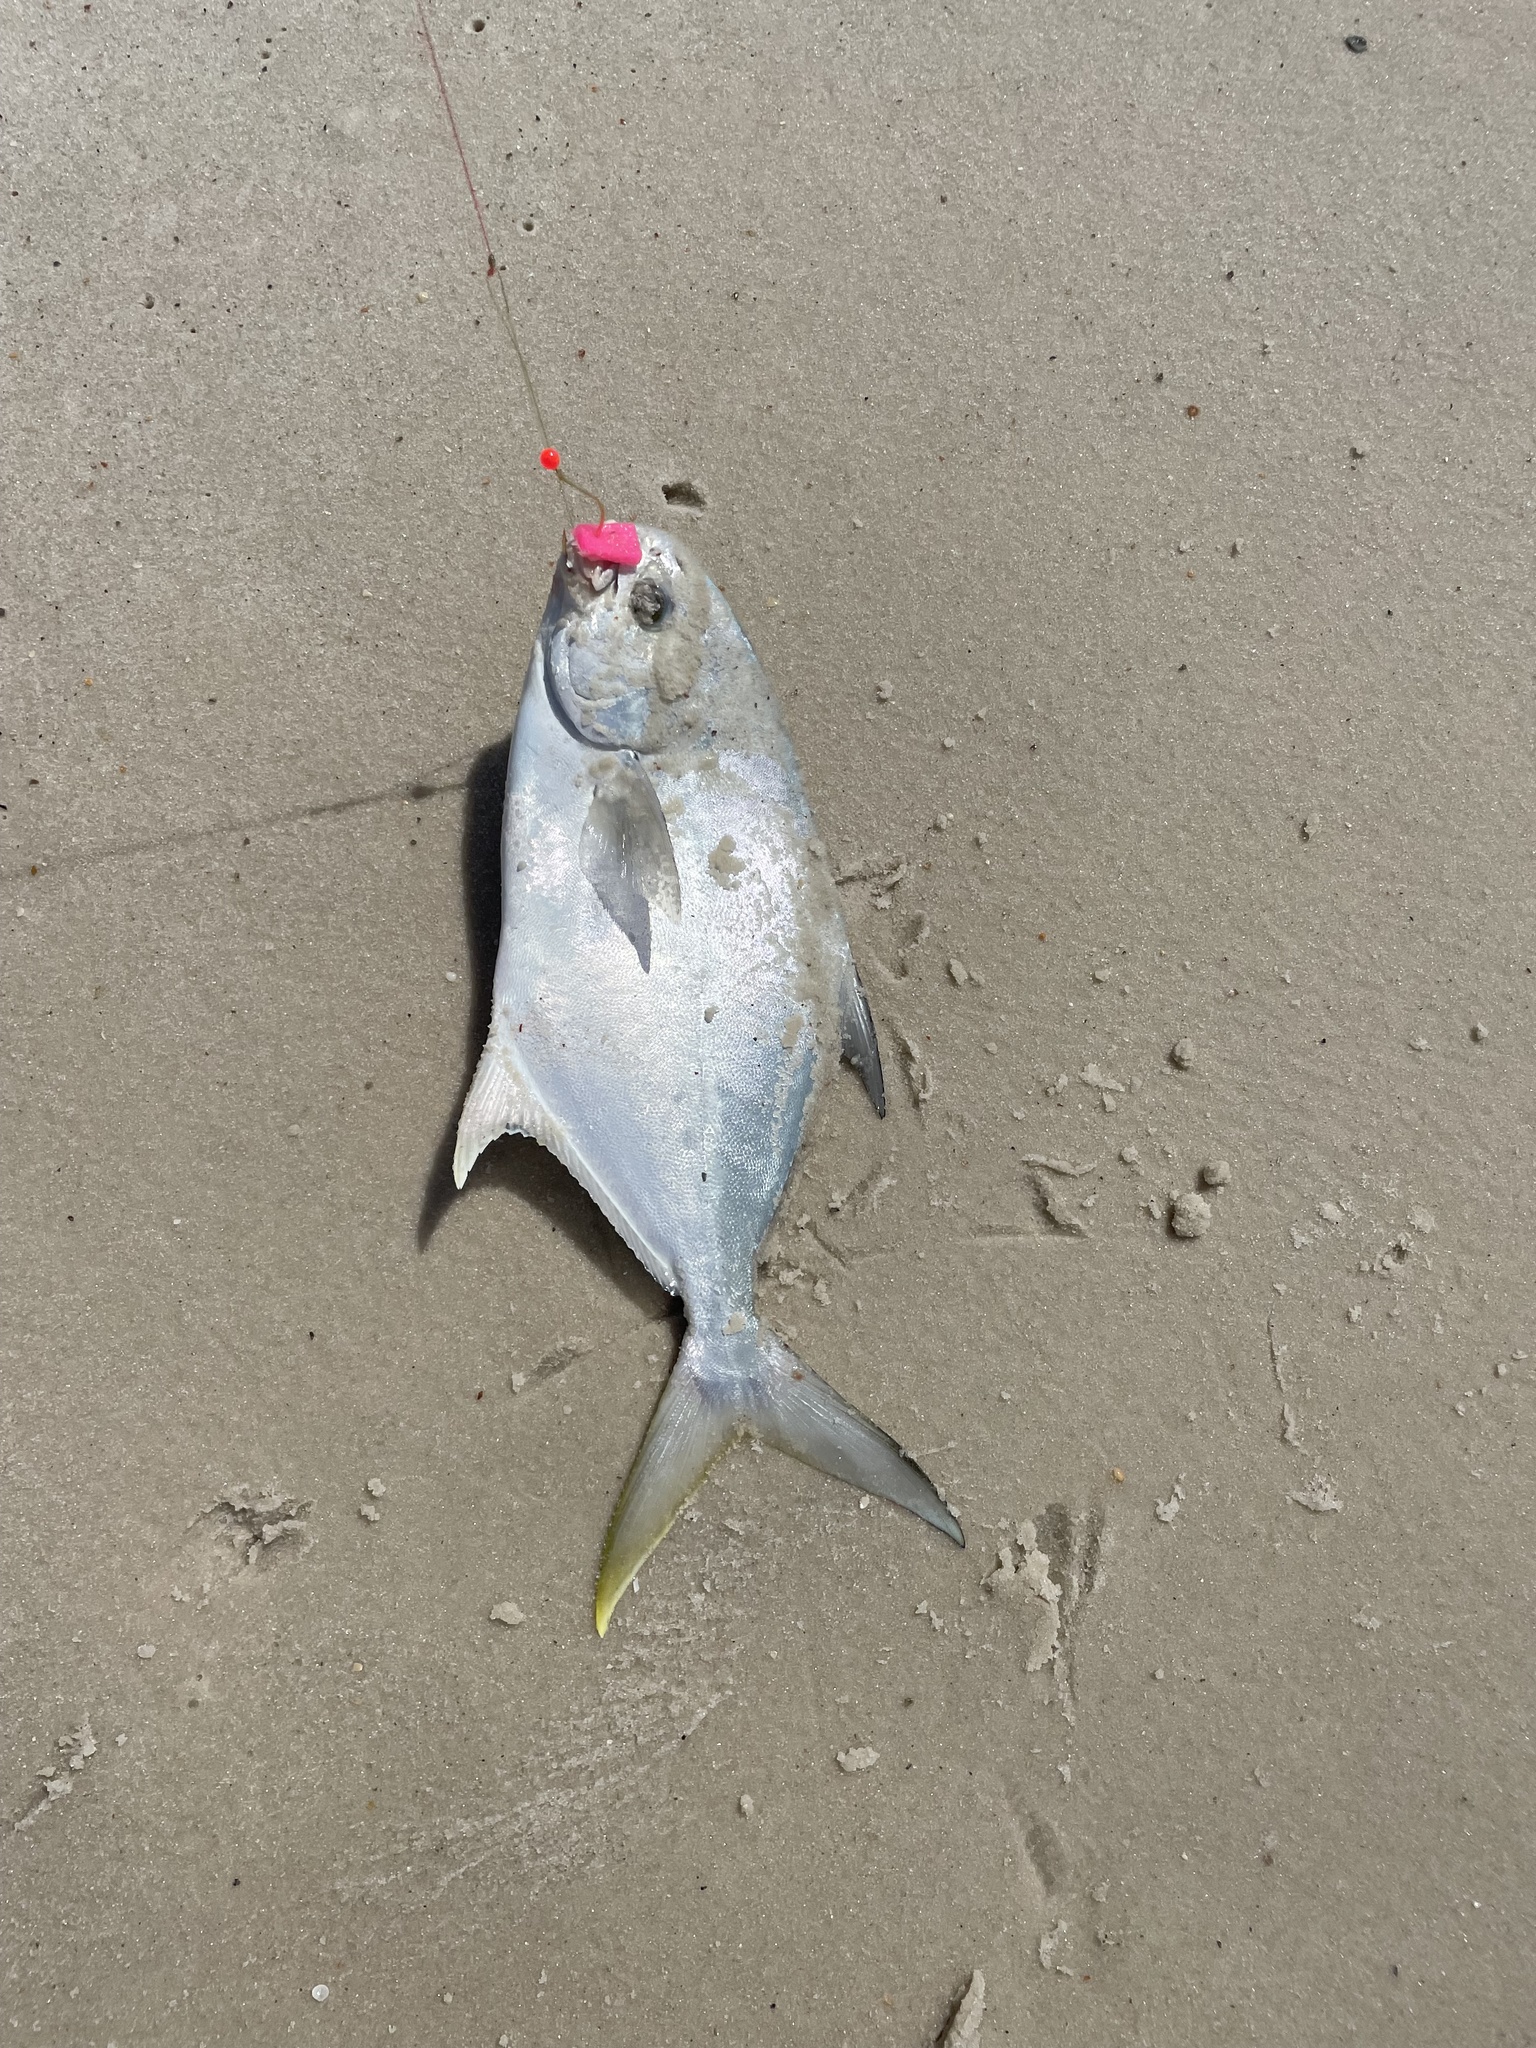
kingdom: Animalia
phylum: Chordata
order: Perciformes
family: Carangidae
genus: Trachinotus
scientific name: Trachinotus carolinus
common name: Florida pompano
